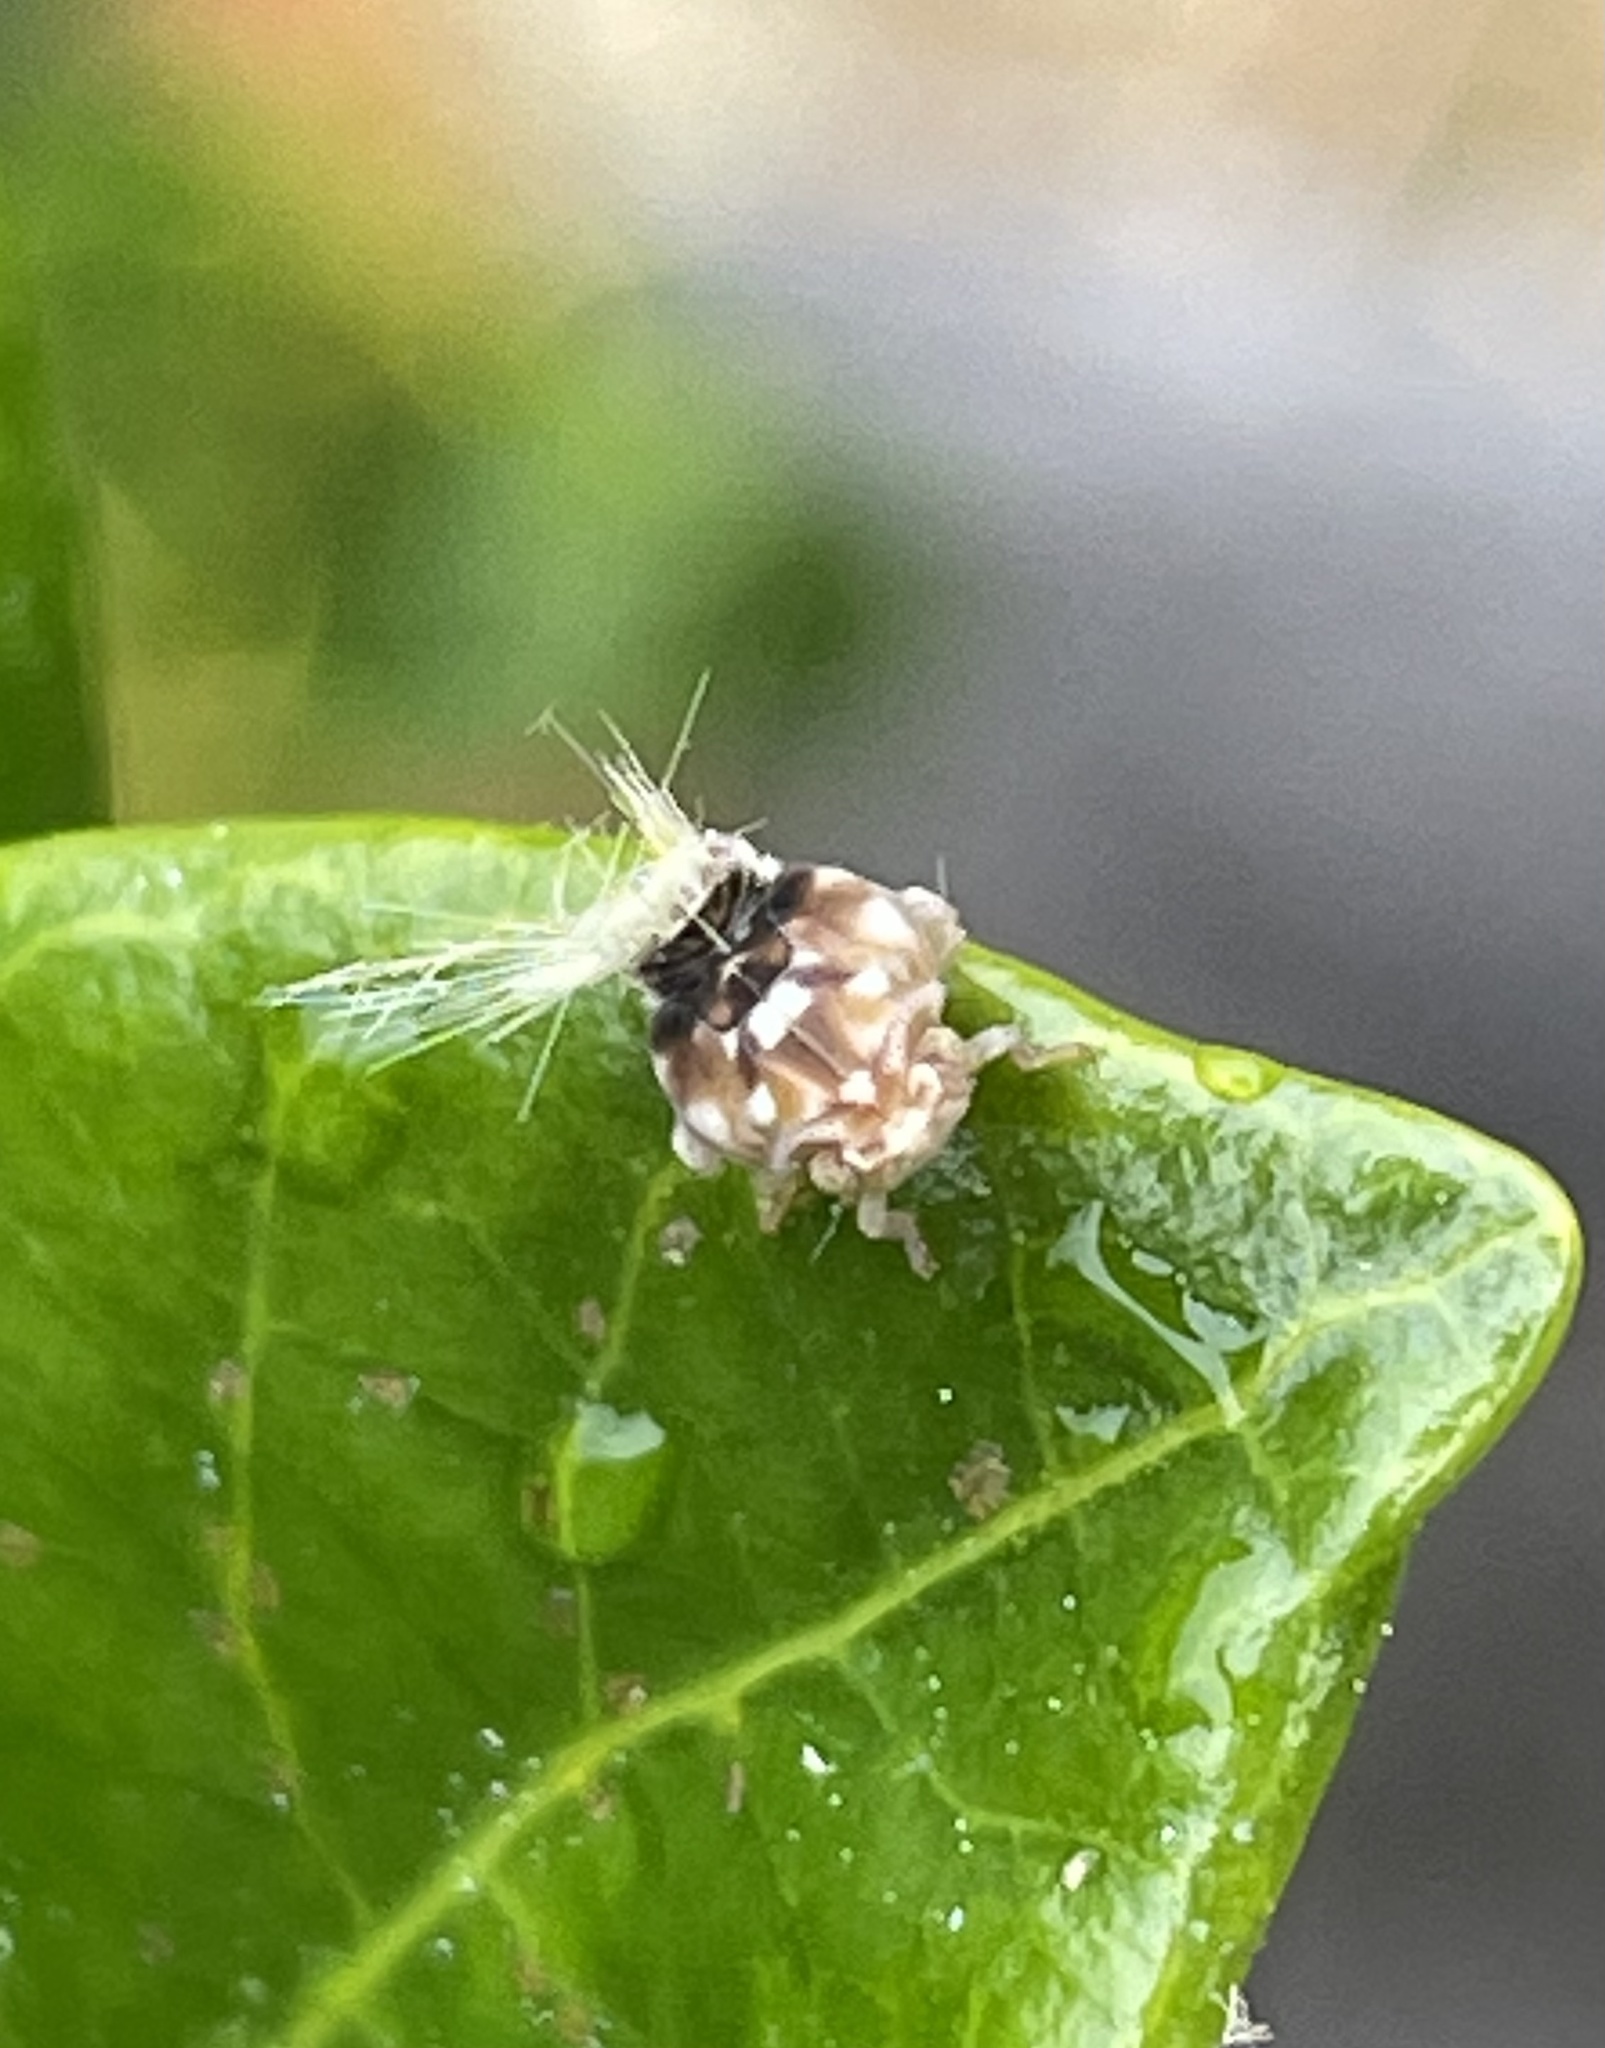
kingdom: Animalia
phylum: Arthropoda
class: Insecta
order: Hemiptera
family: Ricaniidae
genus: Scolypopa
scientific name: Scolypopa australis
